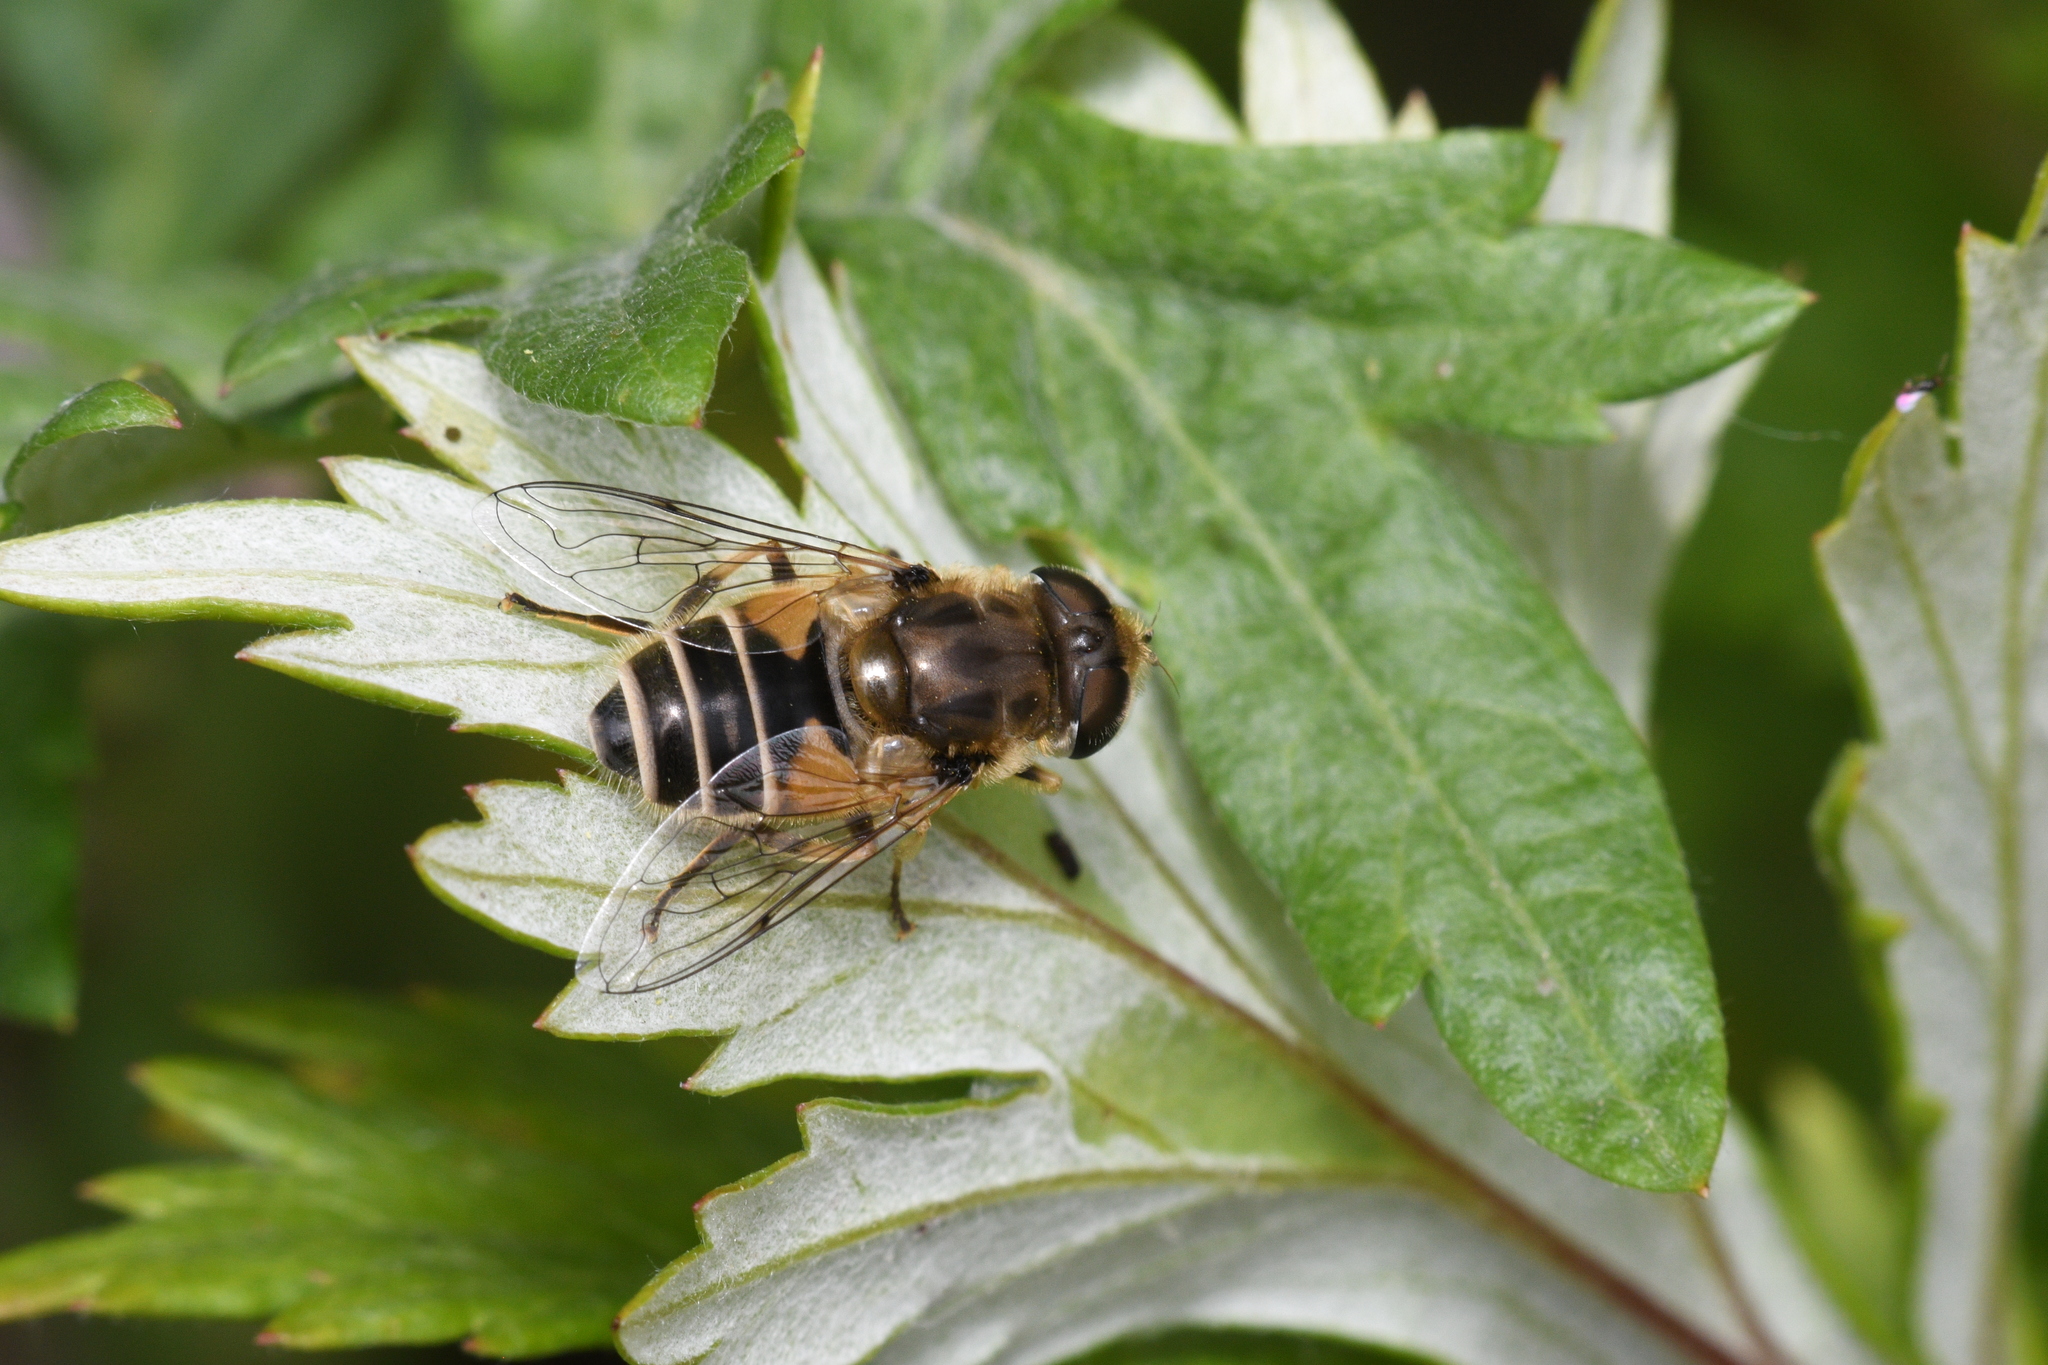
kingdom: Animalia
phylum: Arthropoda
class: Insecta
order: Diptera
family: Syrphidae
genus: Eristalis
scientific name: Eristalis arbustorum
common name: Hover fly
